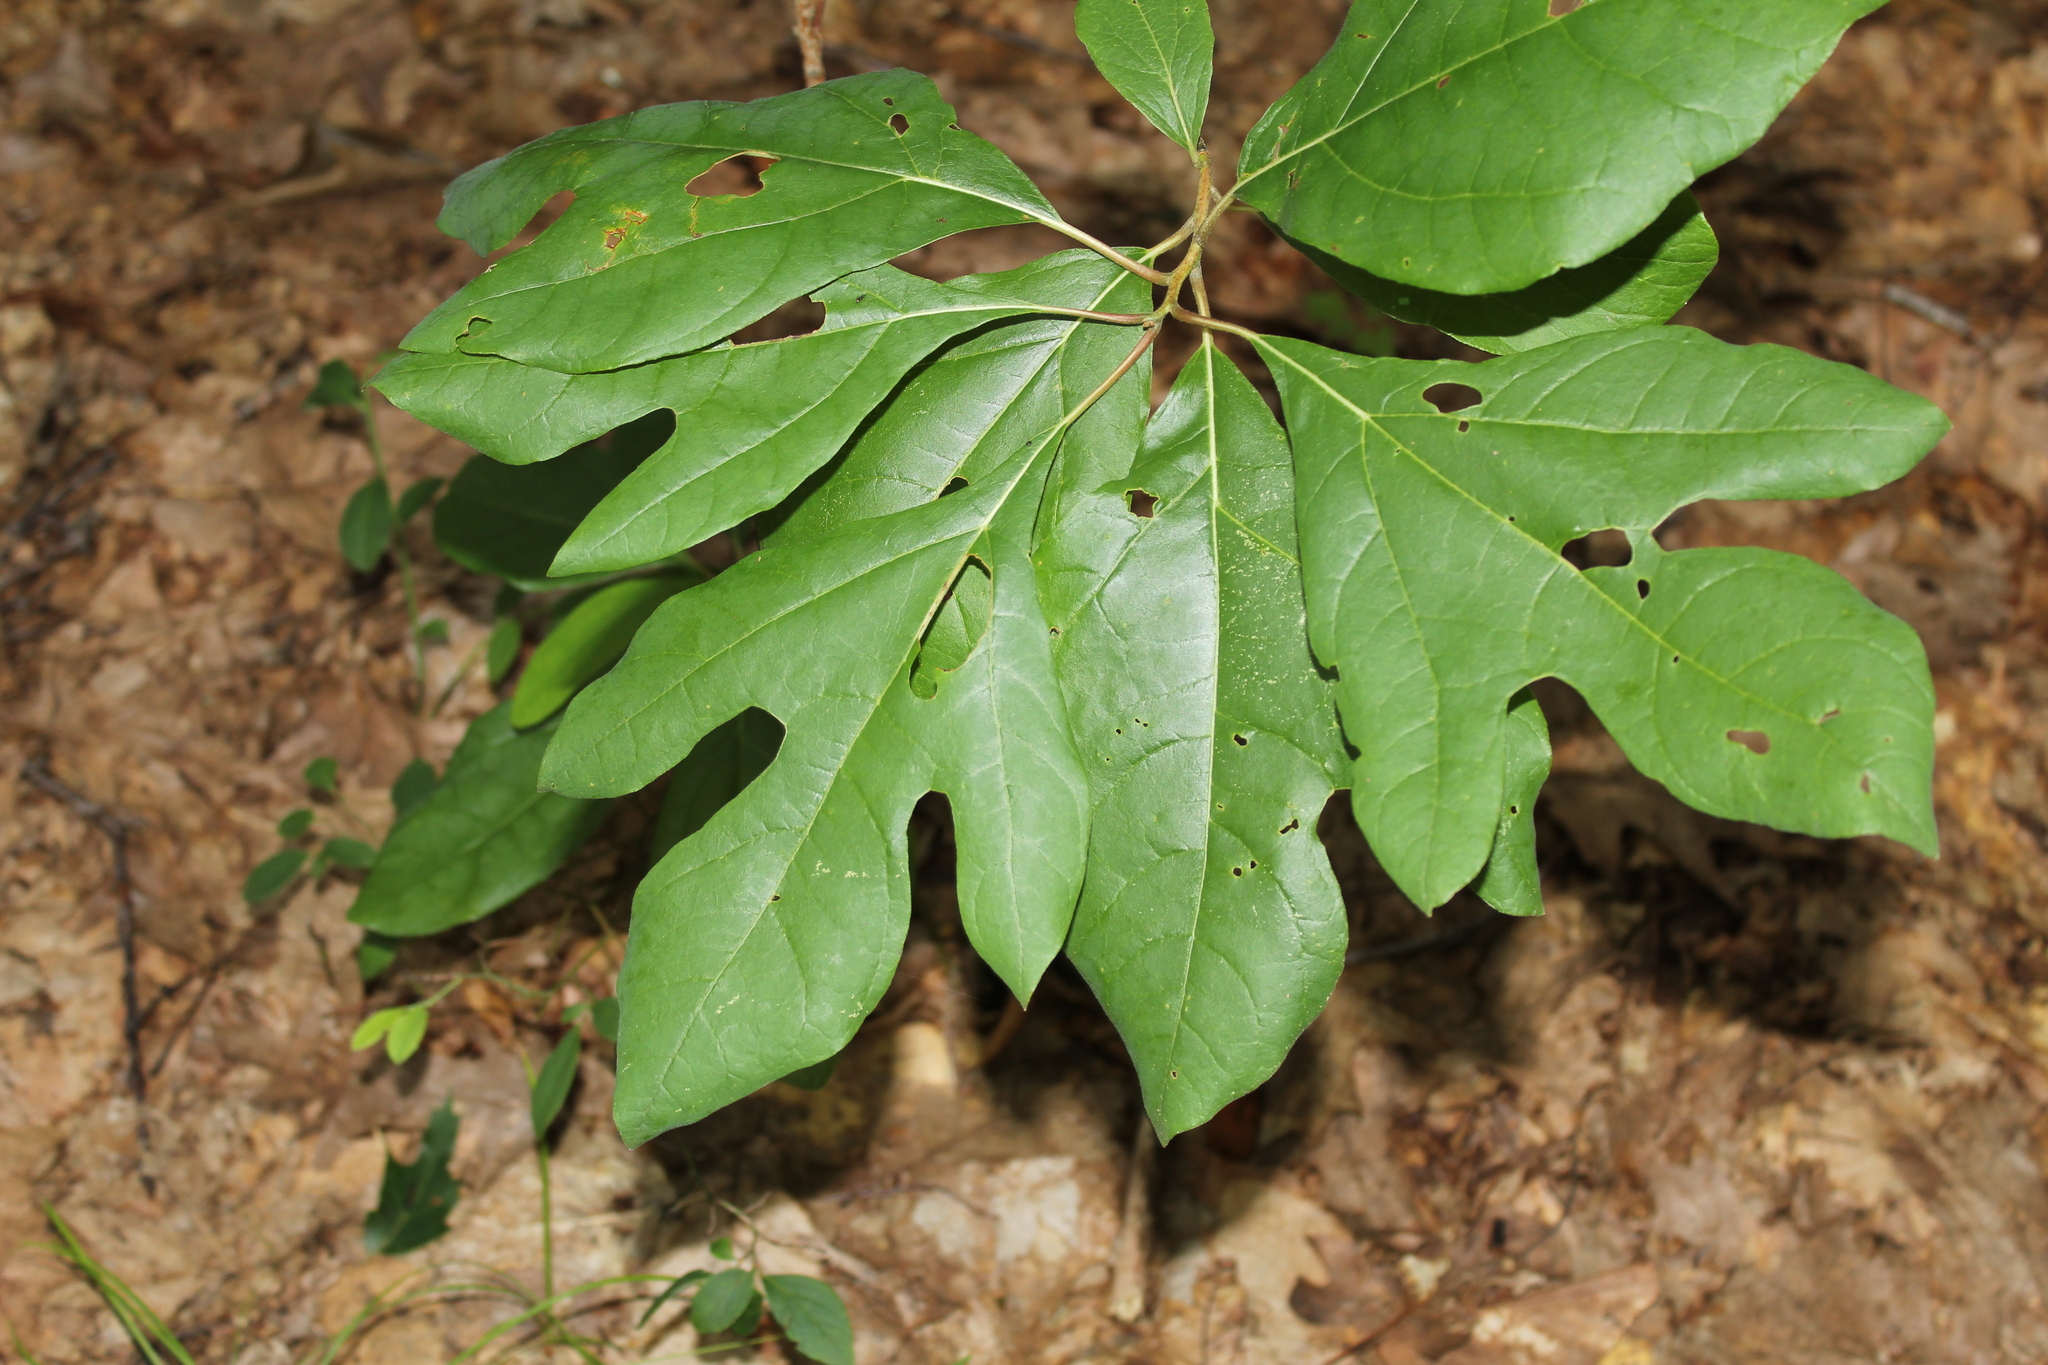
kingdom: Plantae
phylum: Tracheophyta
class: Magnoliopsida
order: Laurales
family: Lauraceae
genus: Sassafras
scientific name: Sassafras albidum
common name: Sassafras
